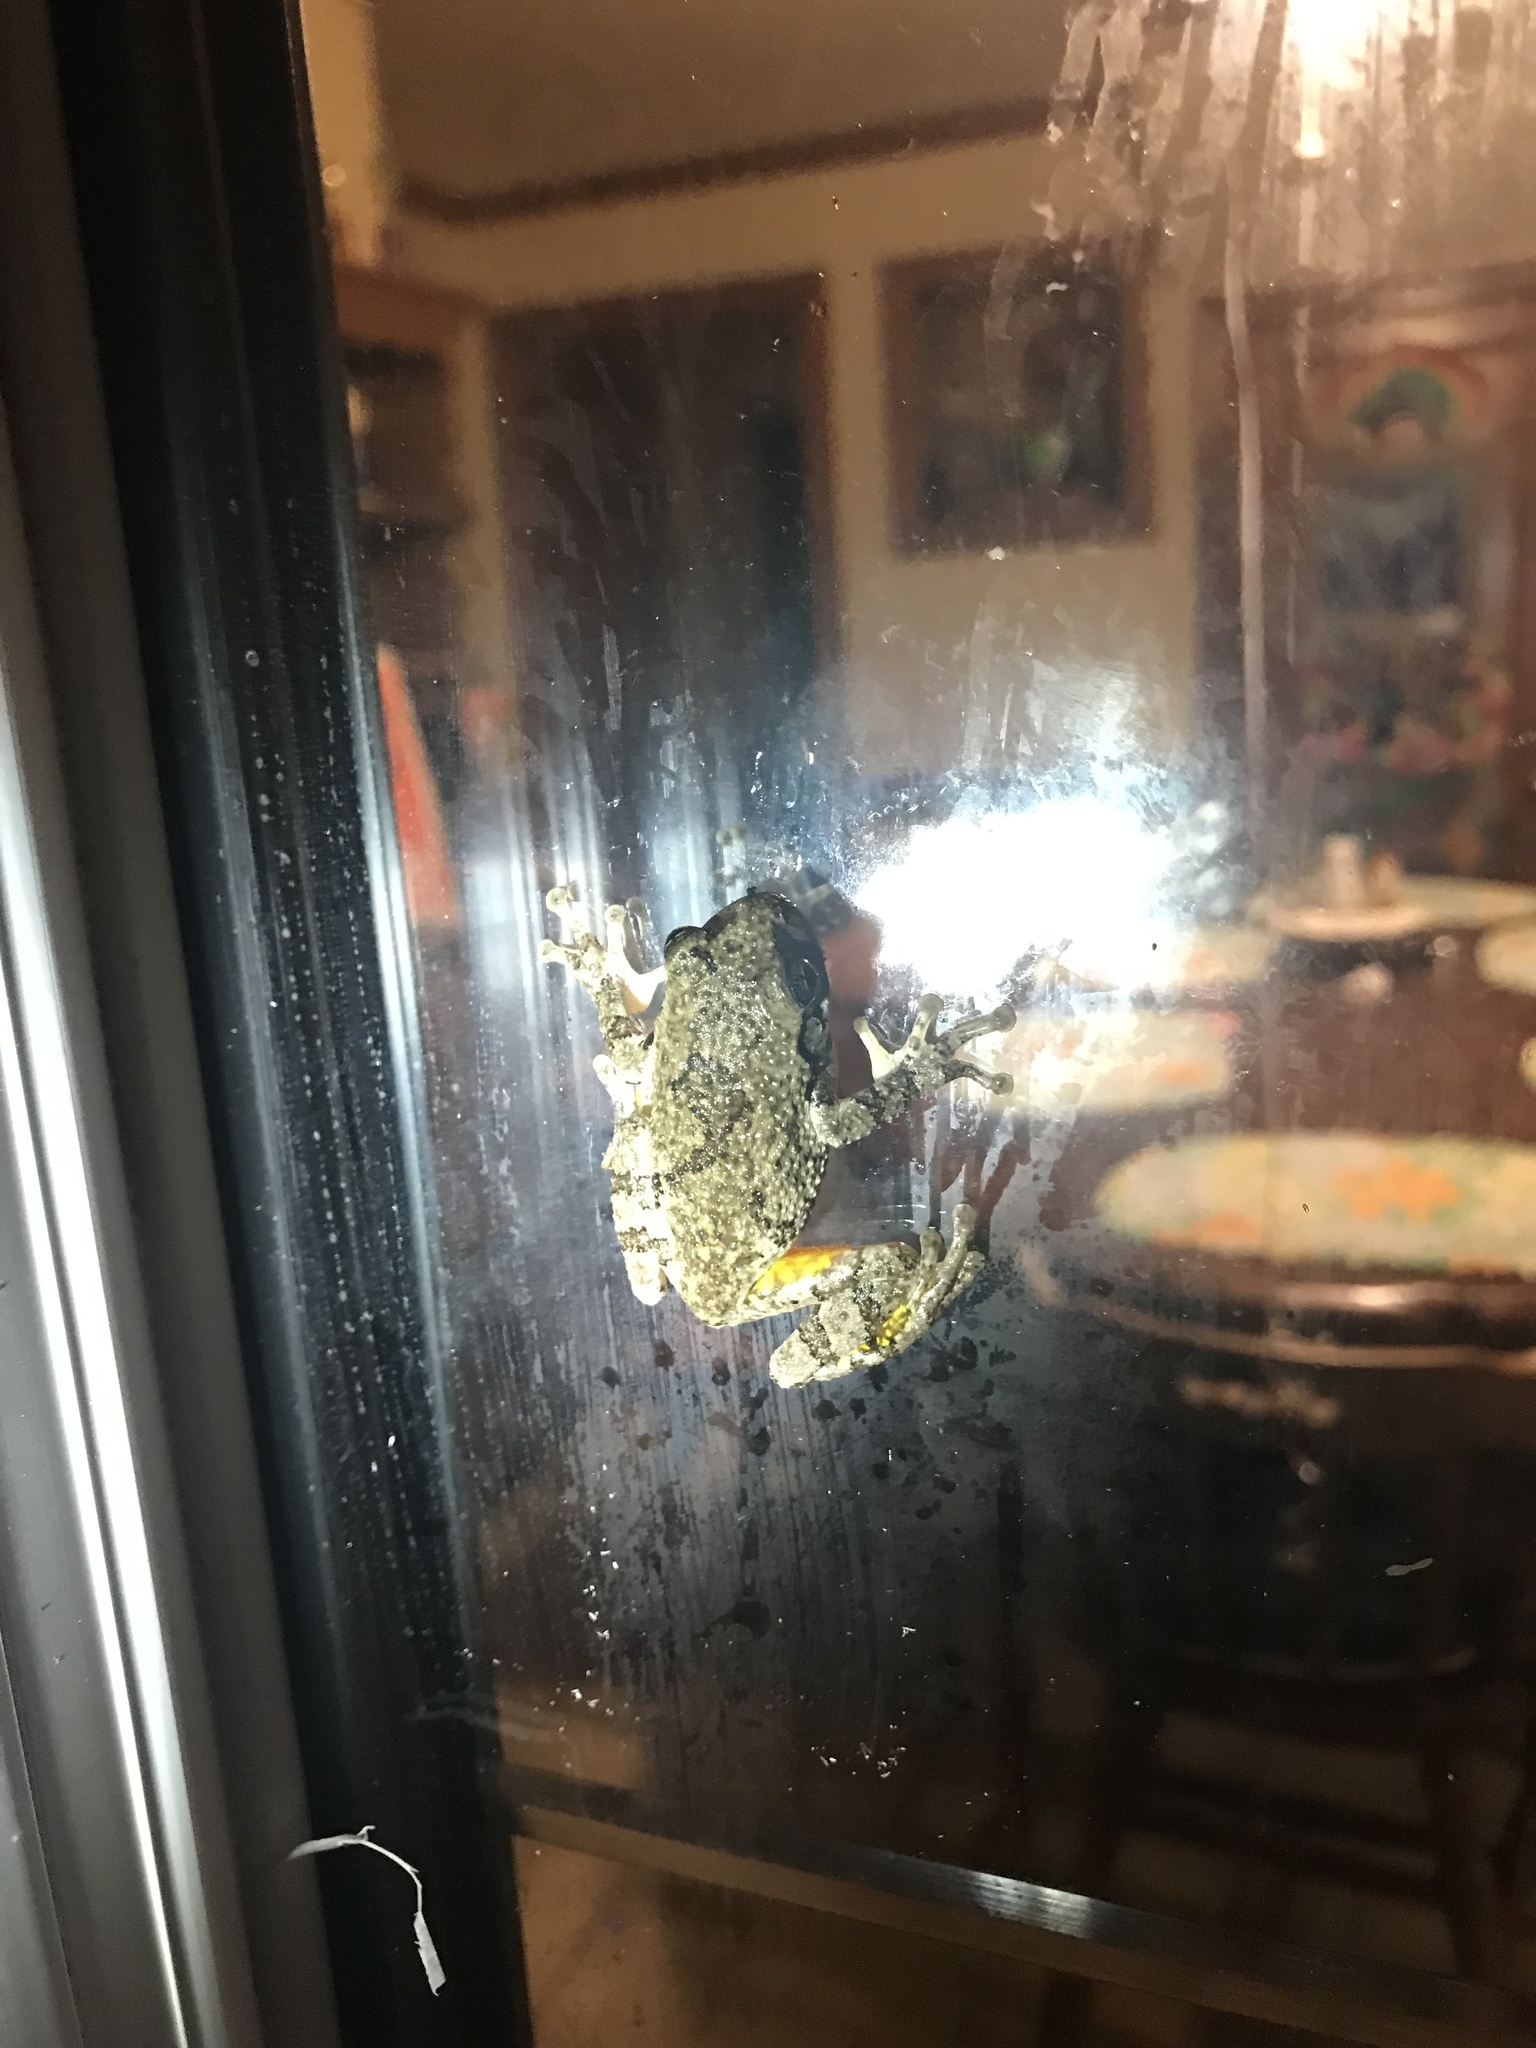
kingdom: Animalia
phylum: Chordata
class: Amphibia
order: Anura
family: Hylidae
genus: Dryophytes
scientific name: Dryophytes chrysoscelis
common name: Cope's gray treefrog
